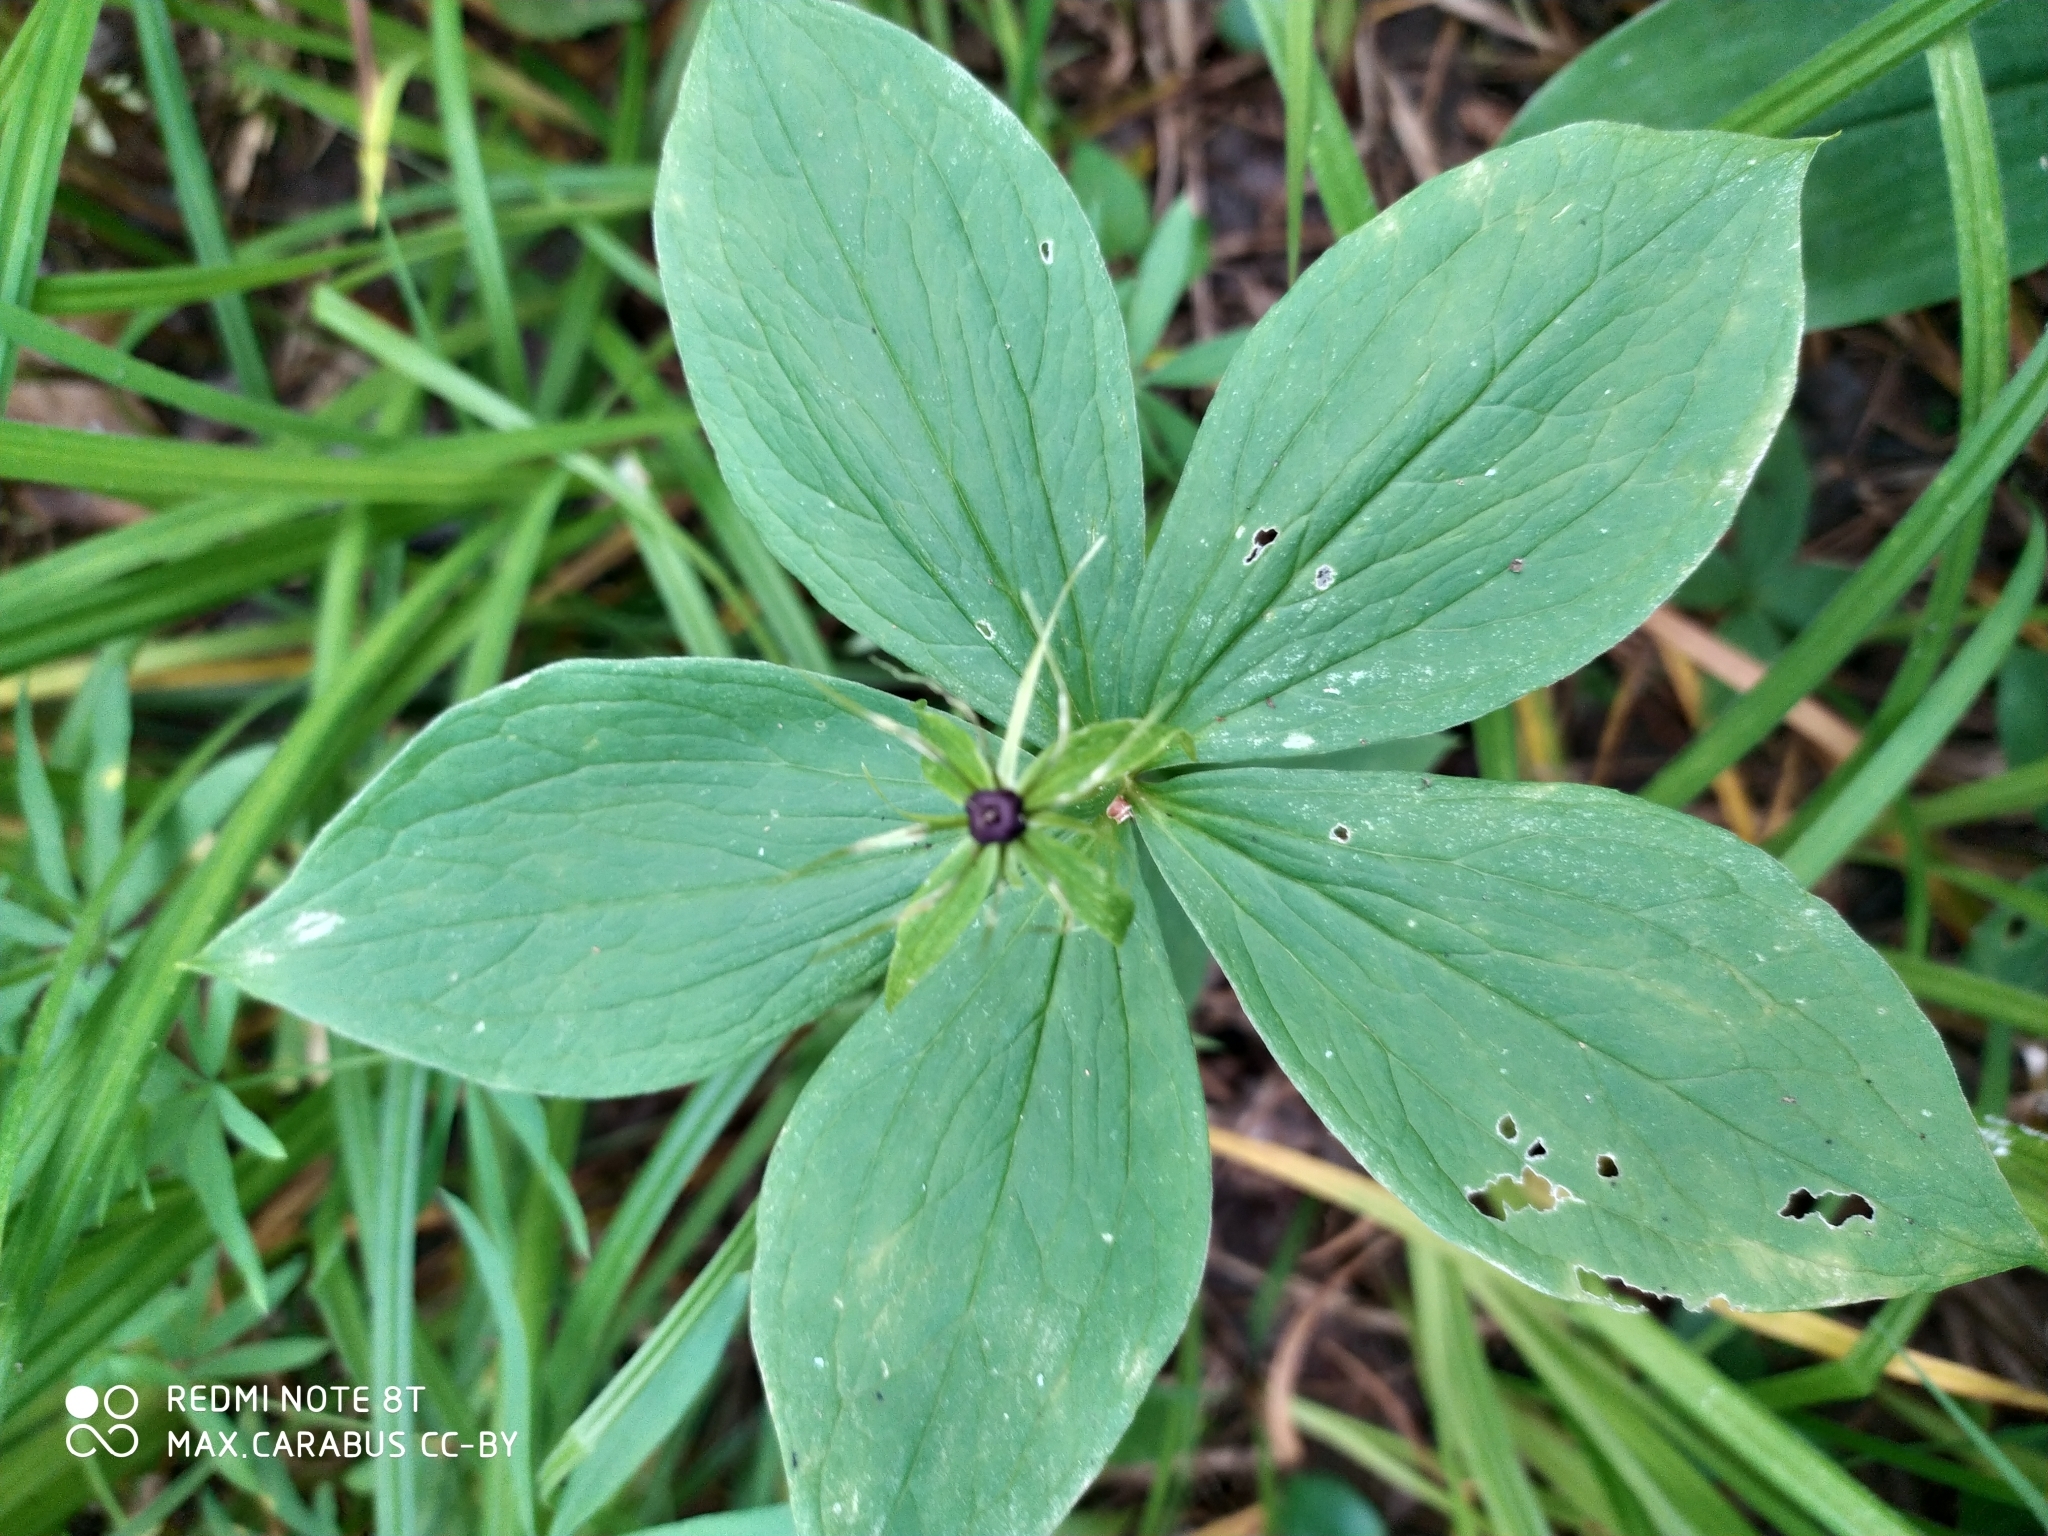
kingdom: Plantae
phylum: Tracheophyta
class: Liliopsida
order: Liliales
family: Melanthiaceae
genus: Paris
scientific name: Paris quadrifolia
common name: Herb-paris
